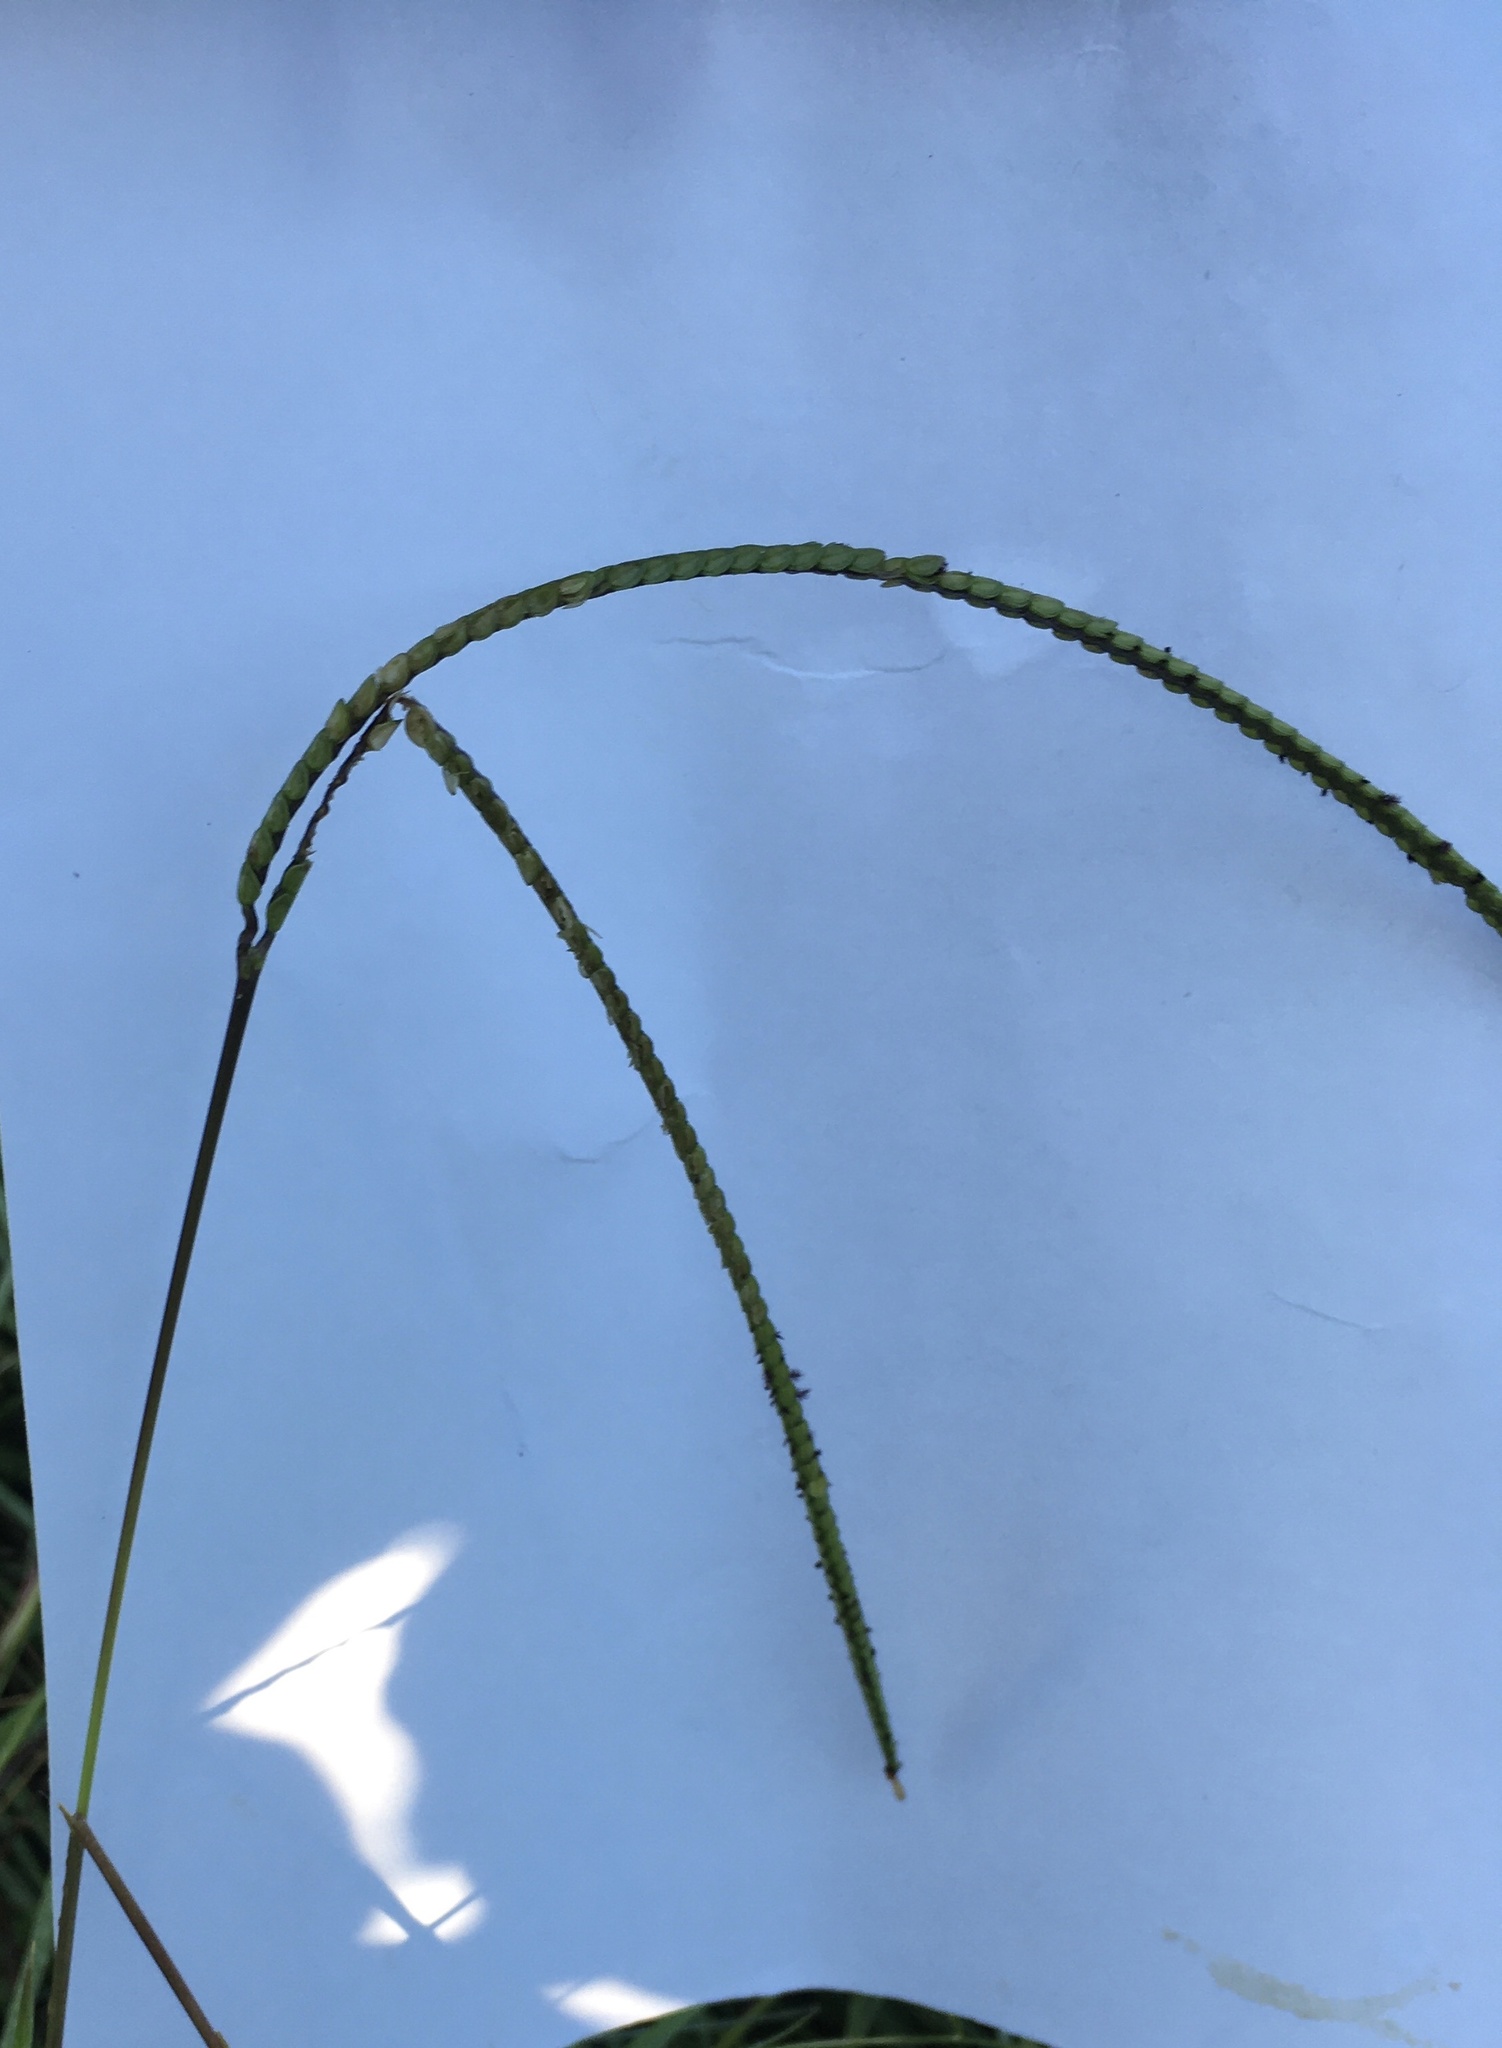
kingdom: Plantae
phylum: Tracheophyta
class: Liliopsida
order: Poales
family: Poaceae
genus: Paspalum
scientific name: Paspalum notatum
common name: Bahiagrass
